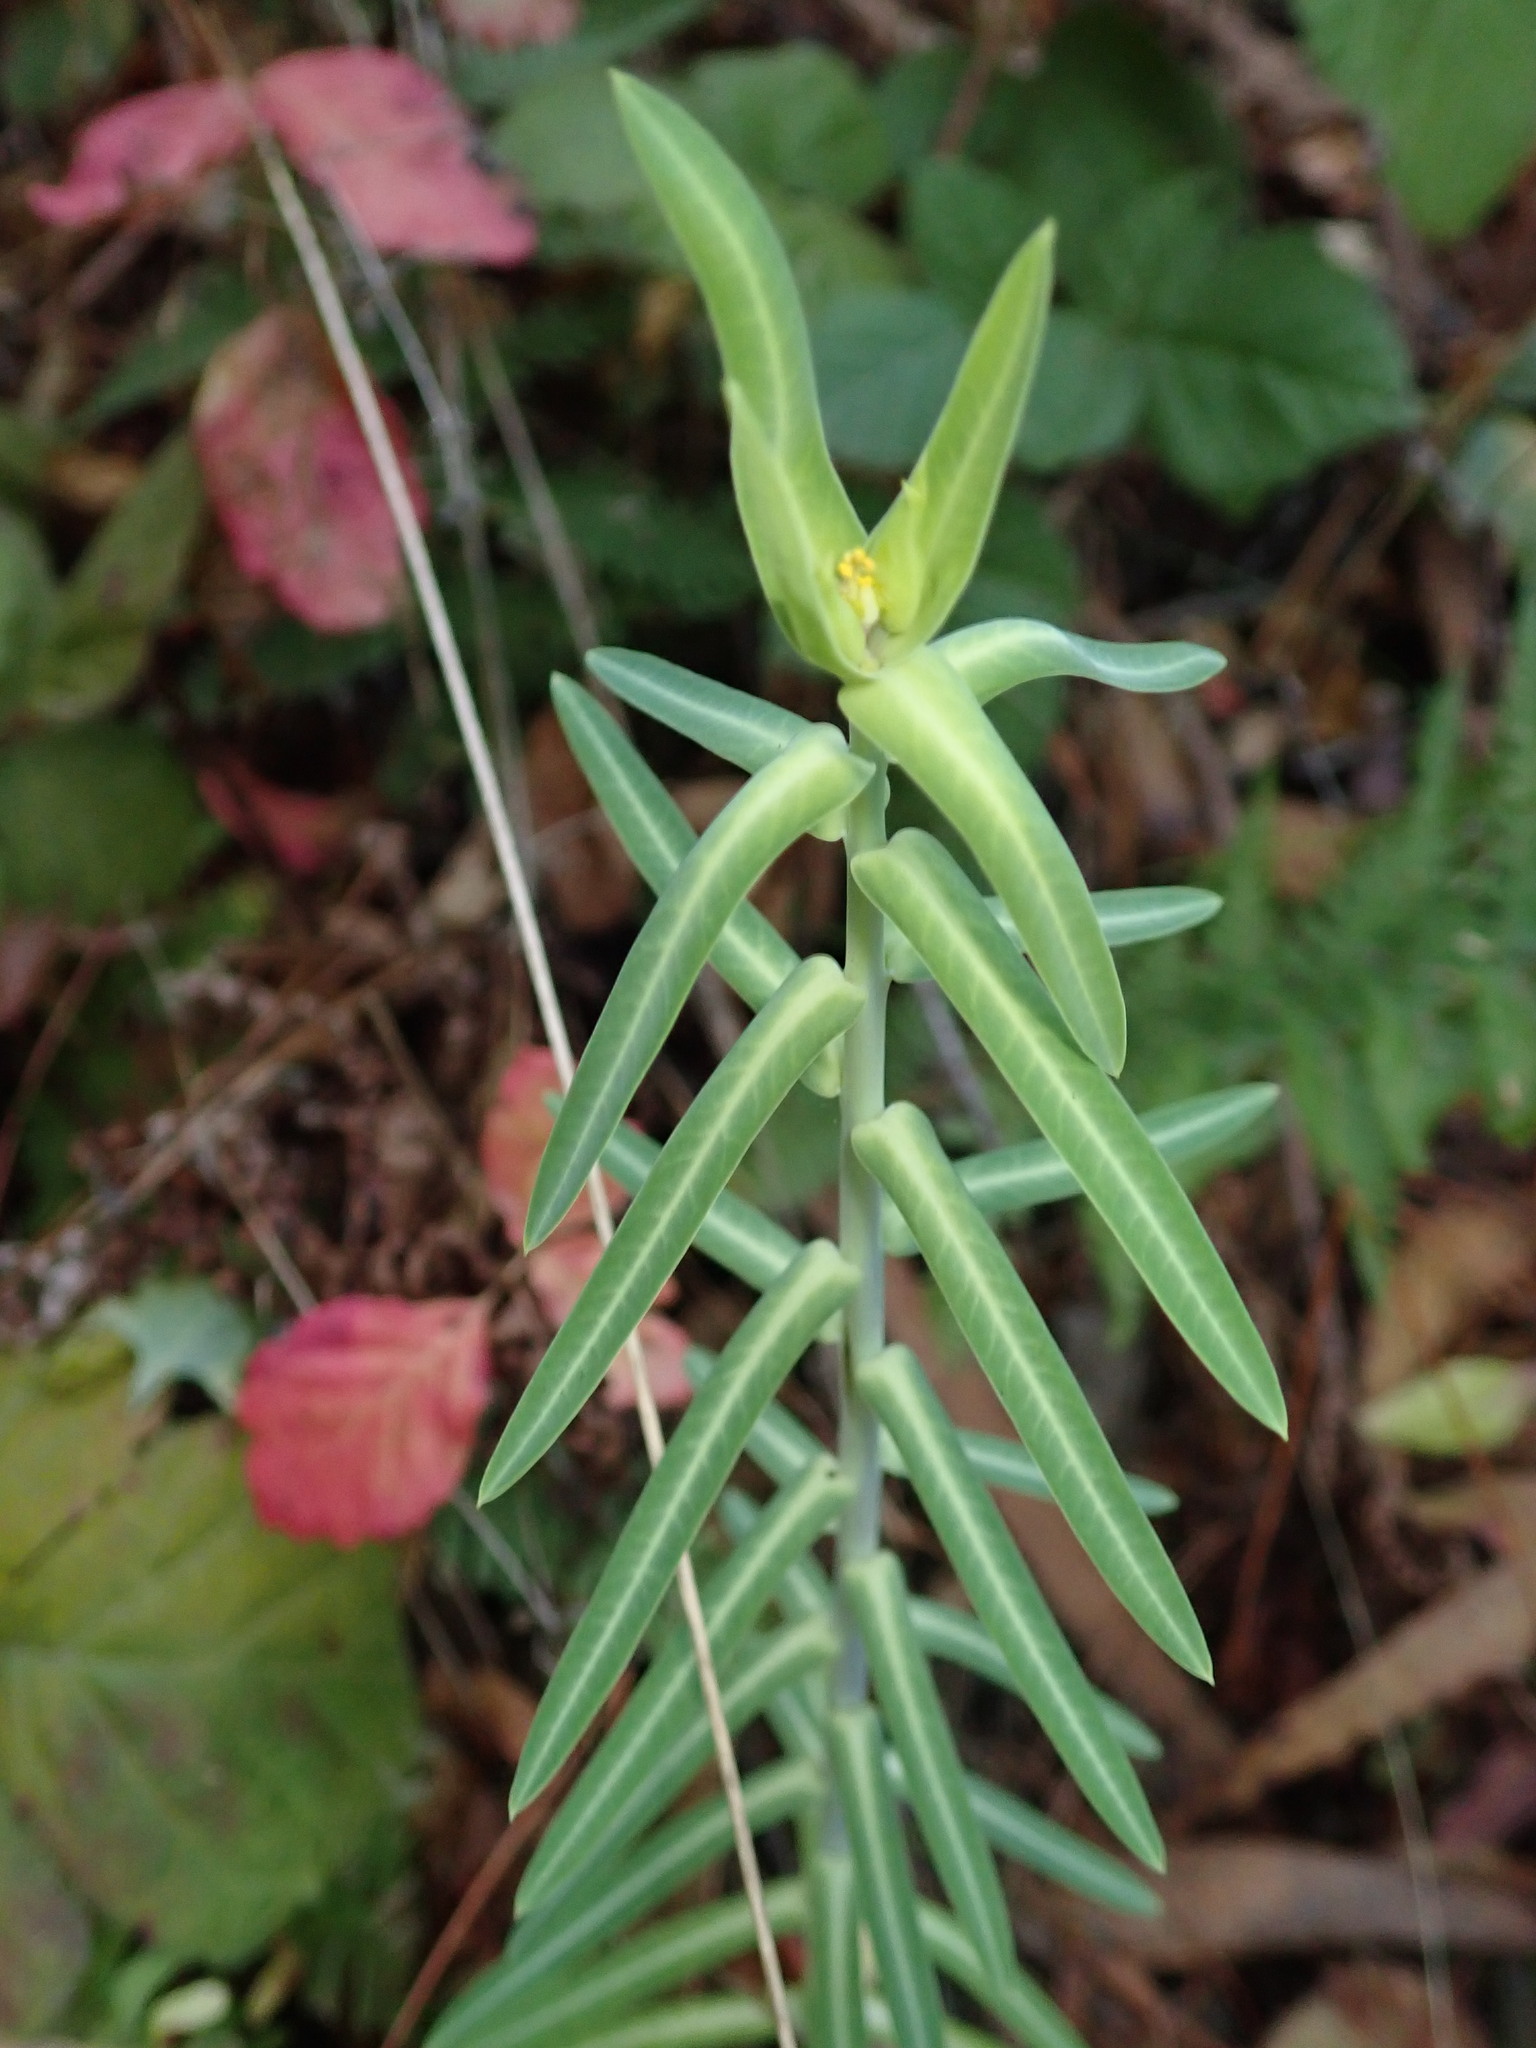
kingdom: Plantae
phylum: Tracheophyta
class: Magnoliopsida
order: Malpighiales
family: Euphorbiaceae
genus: Euphorbia
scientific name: Euphorbia lathyris
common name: Caper spurge
